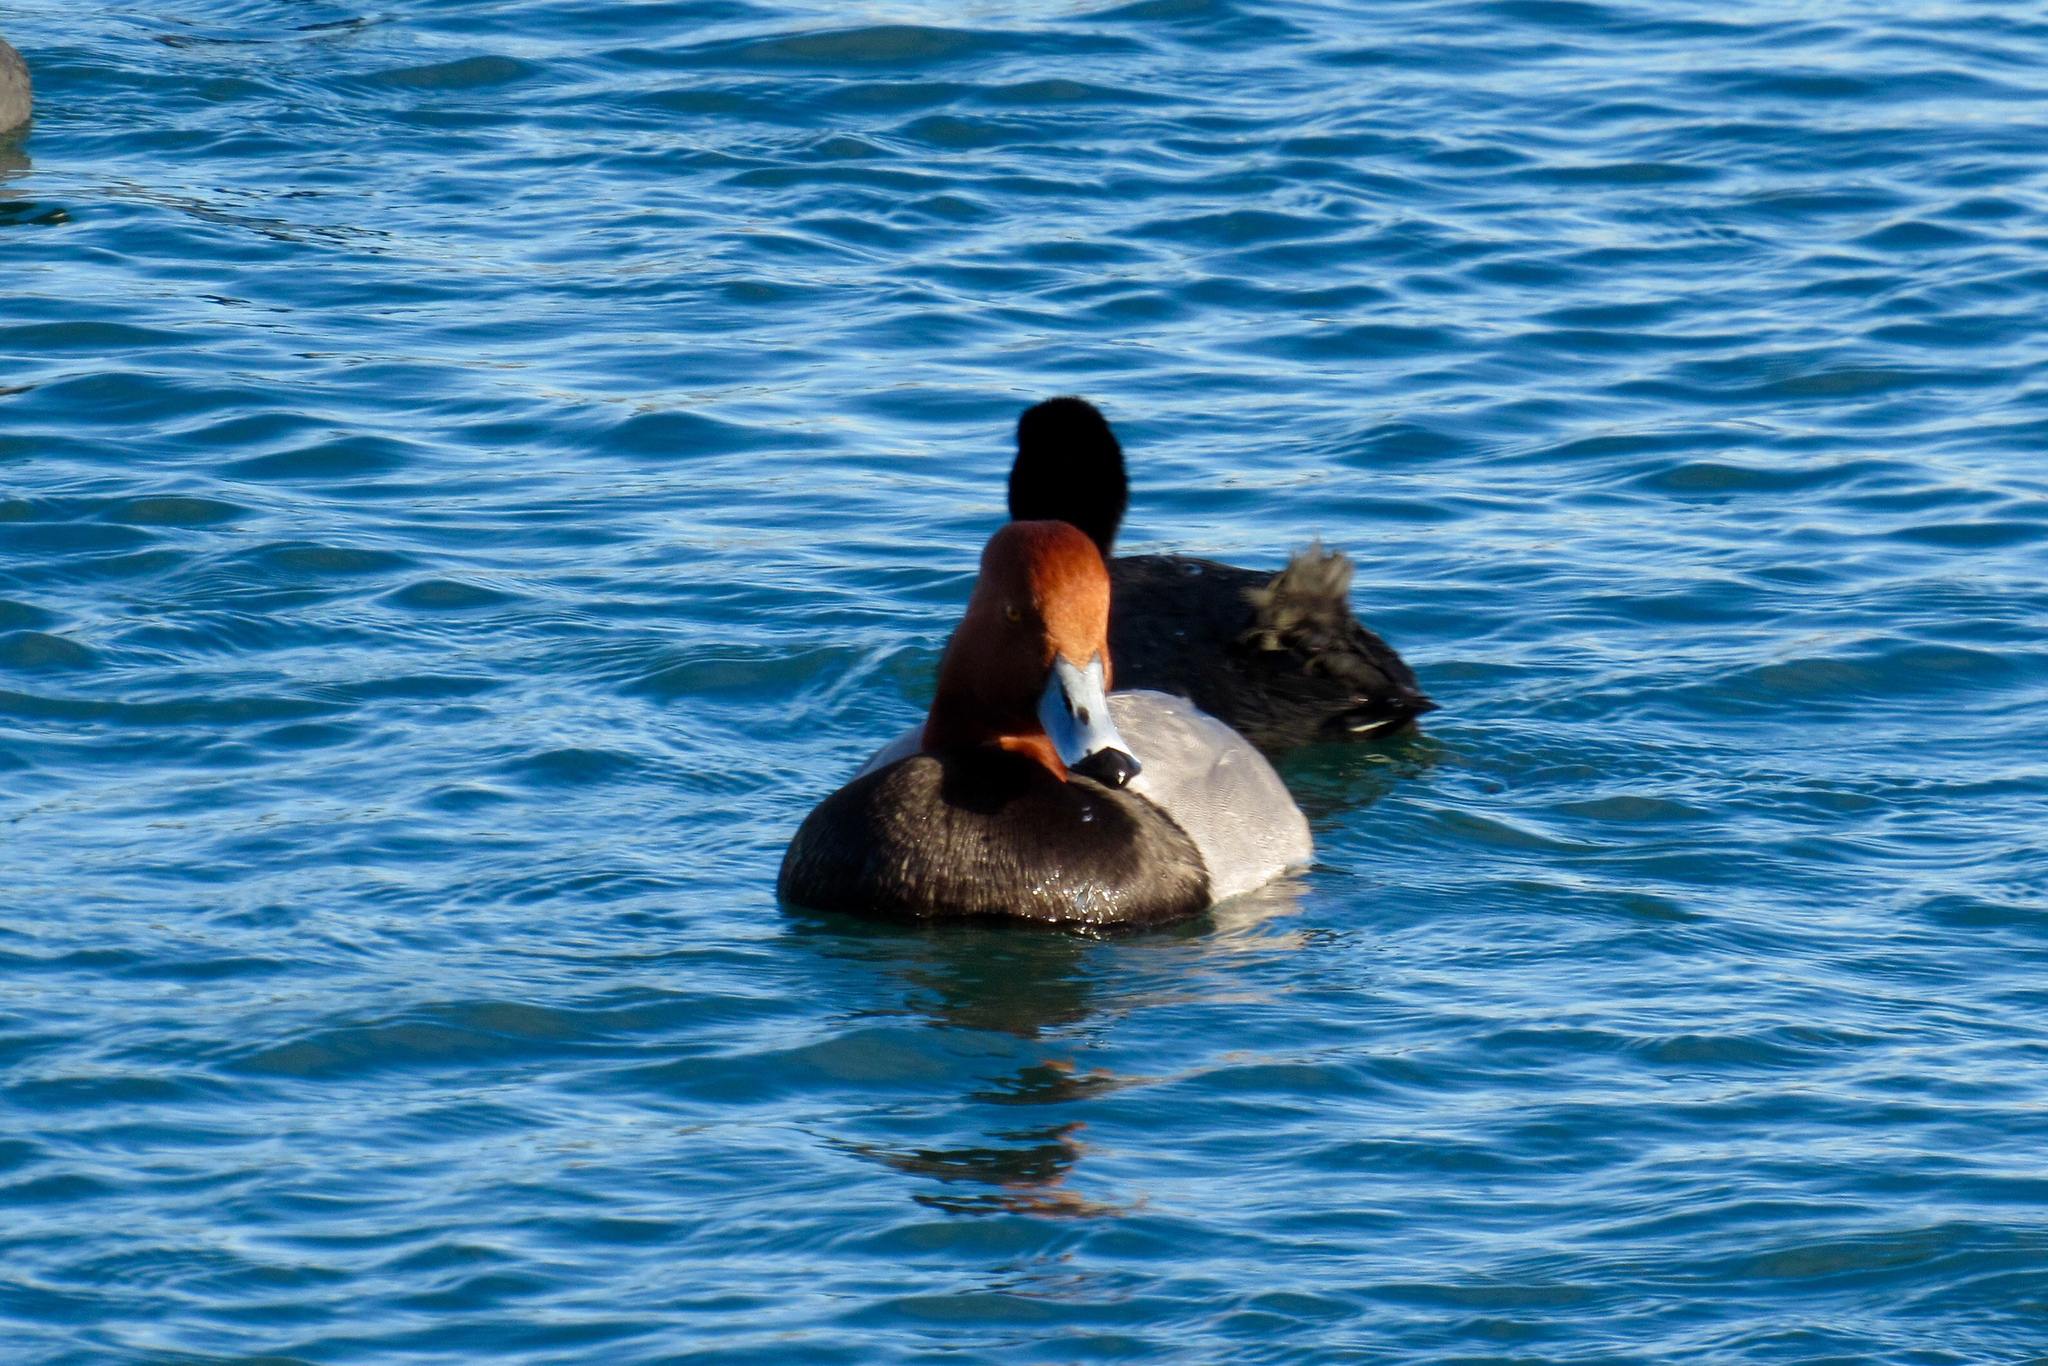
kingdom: Animalia
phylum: Chordata
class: Aves
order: Anseriformes
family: Anatidae
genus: Aythya
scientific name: Aythya americana
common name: Redhead
